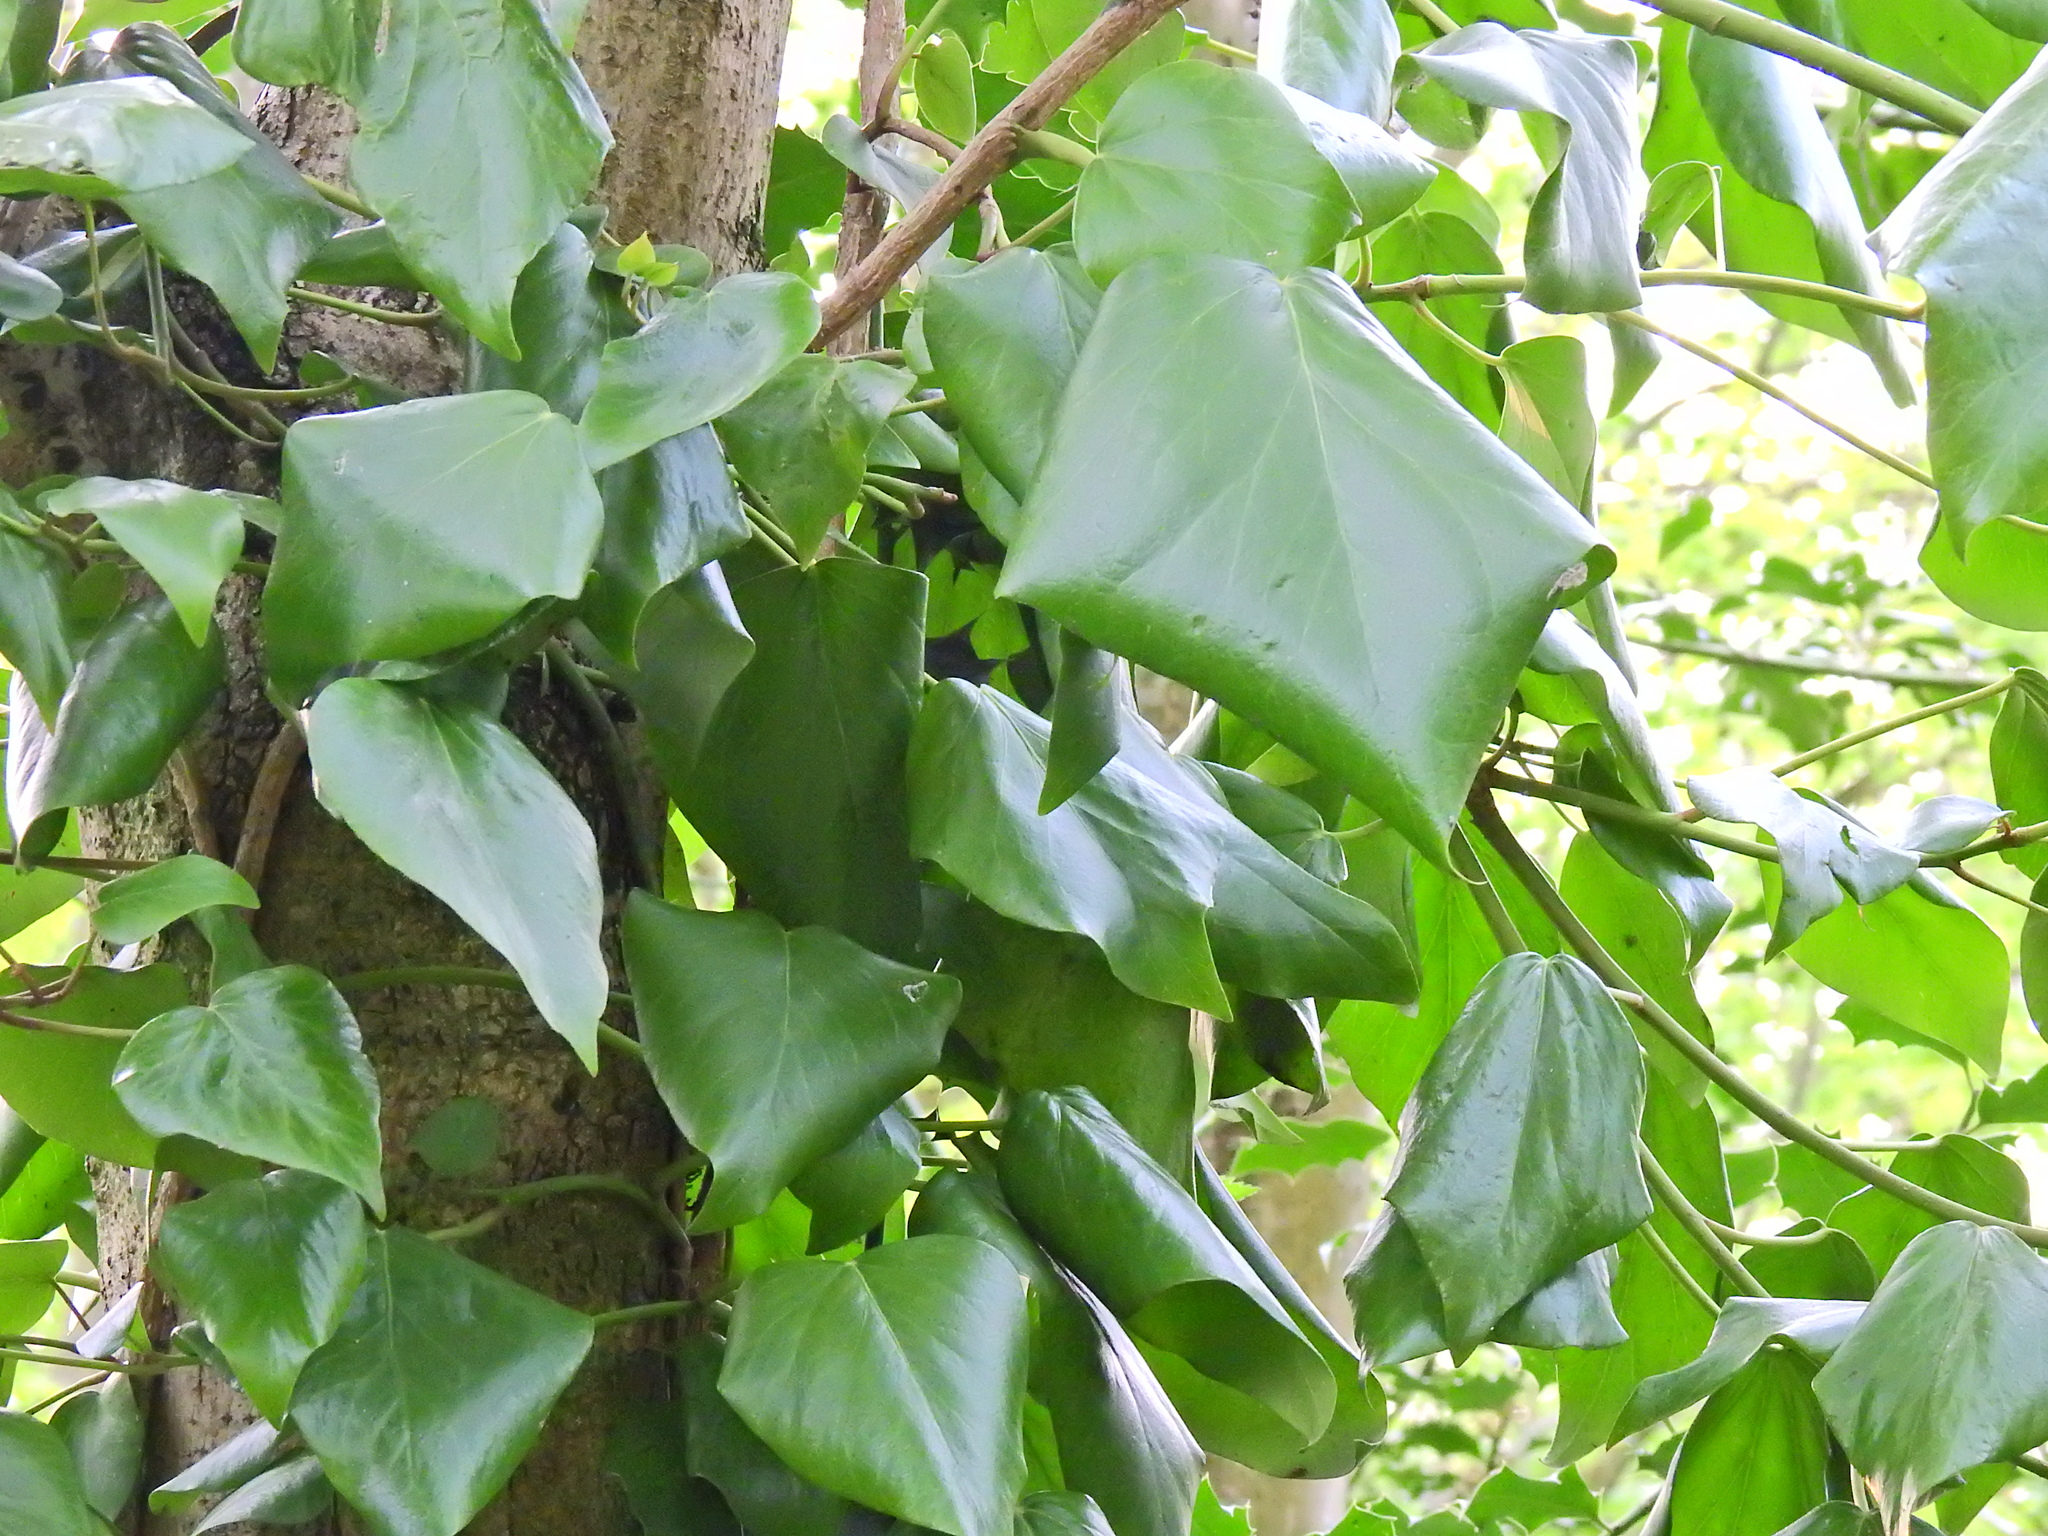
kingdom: Plantae
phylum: Tracheophyta
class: Magnoliopsida
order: Apiales
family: Araliaceae
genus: Hedera
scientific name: Hedera colchica
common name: Persian ivy
